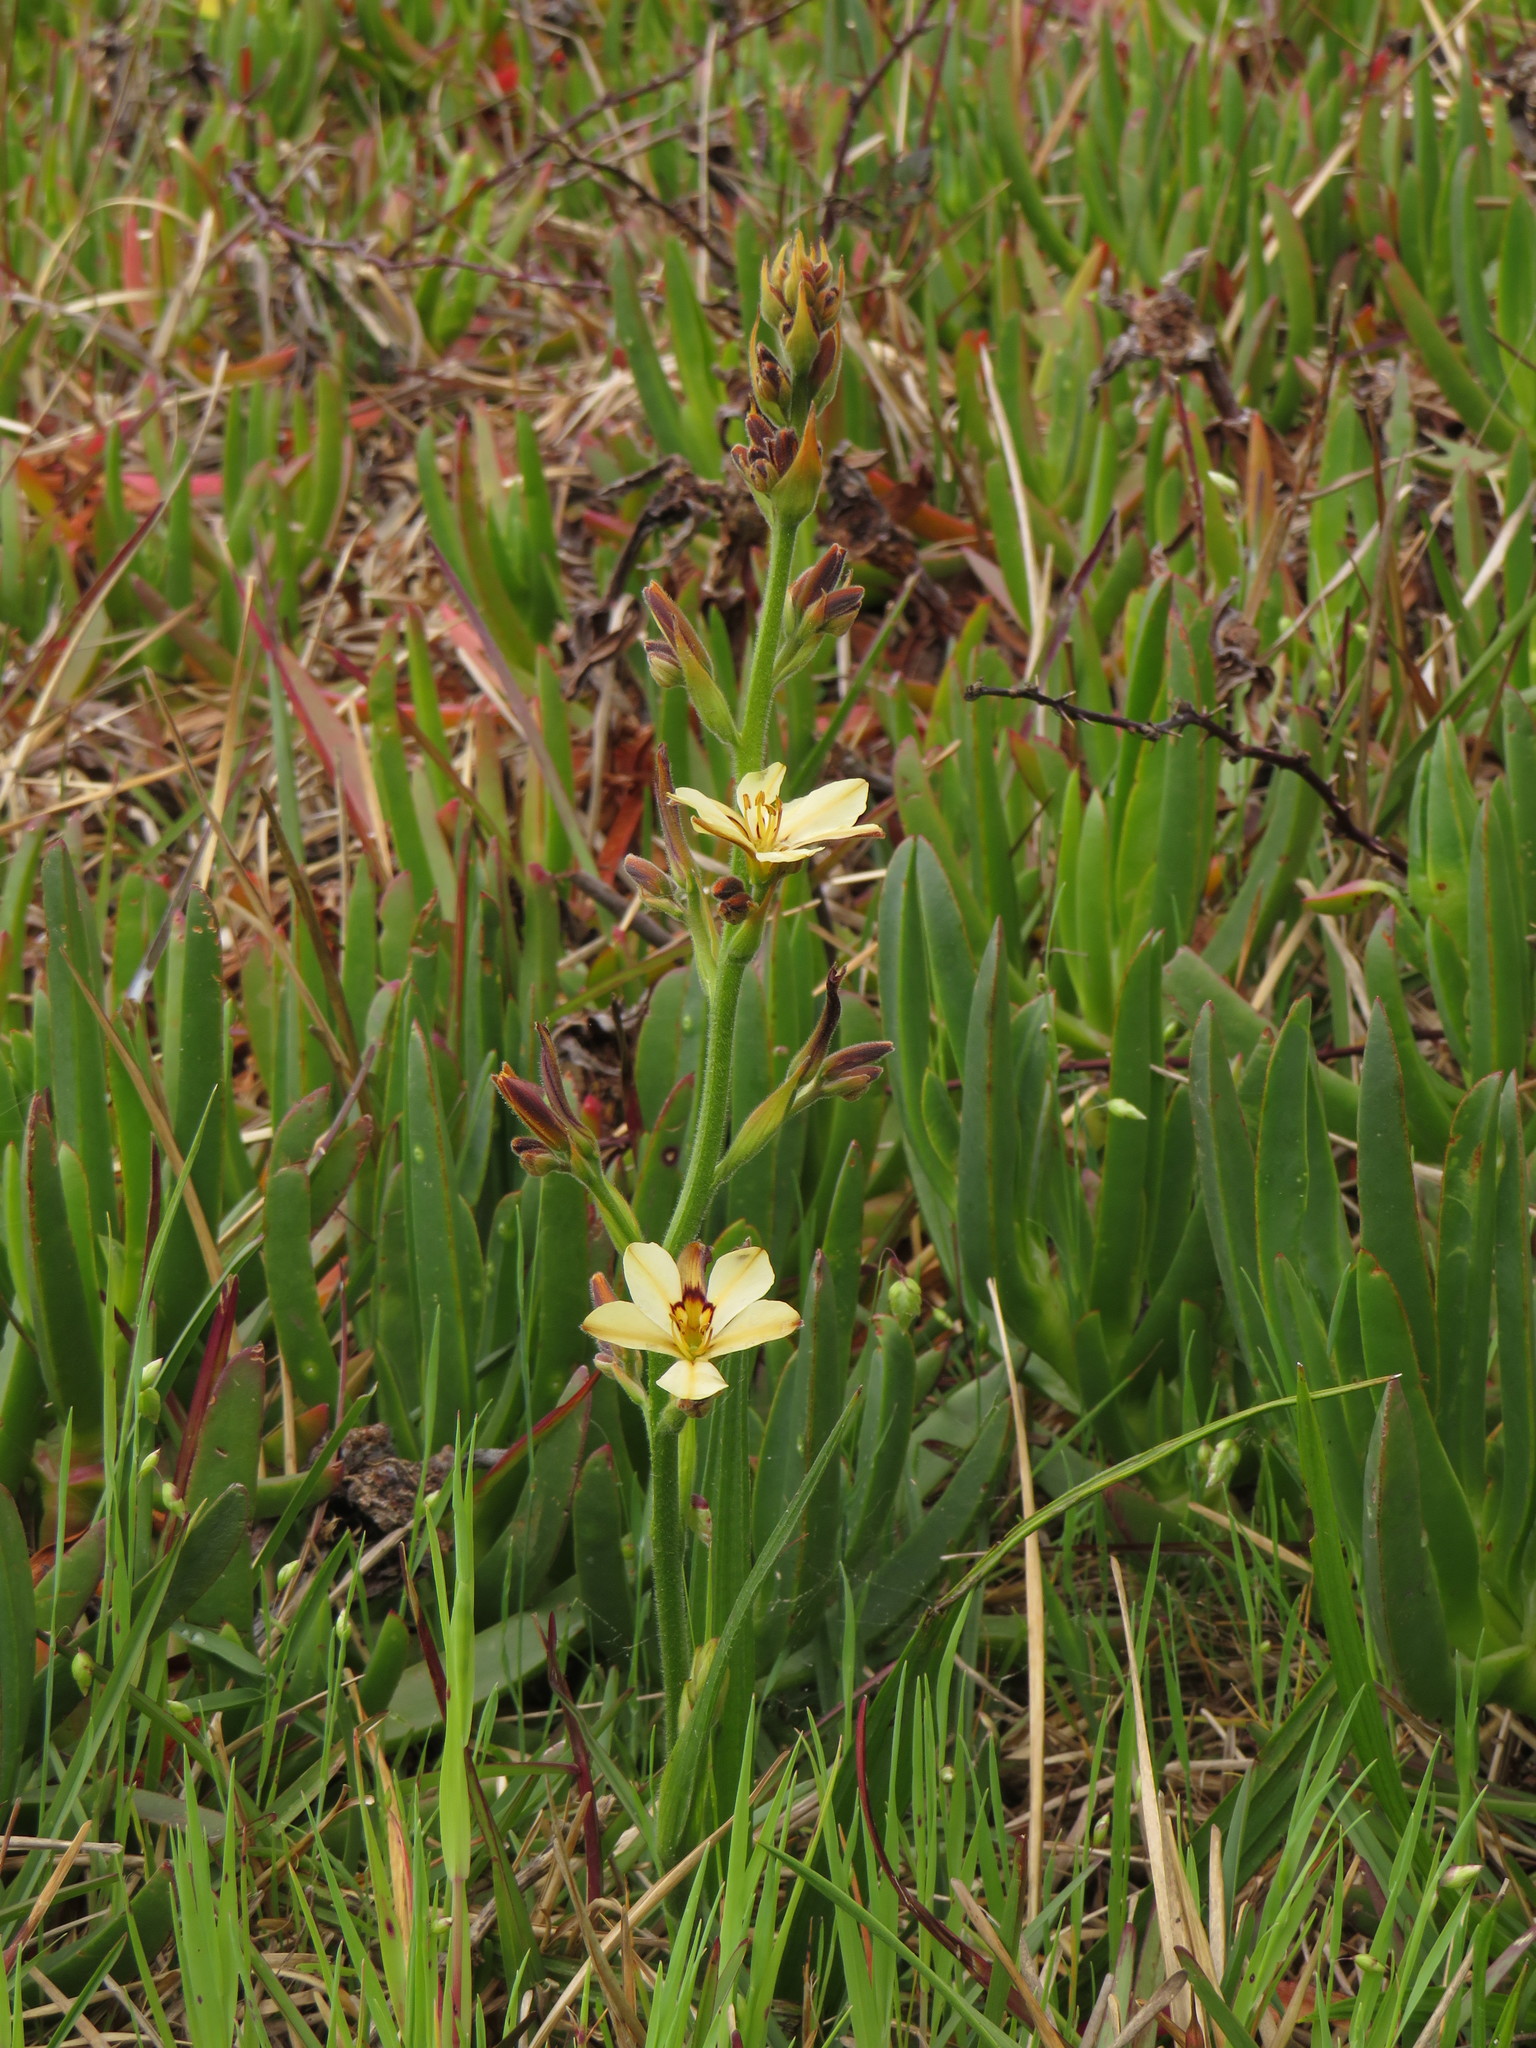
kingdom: Plantae
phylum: Tracheophyta
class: Liliopsida
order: Commelinales
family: Haemodoraceae
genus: Wachendorfia
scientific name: Wachendorfia brachyandra
